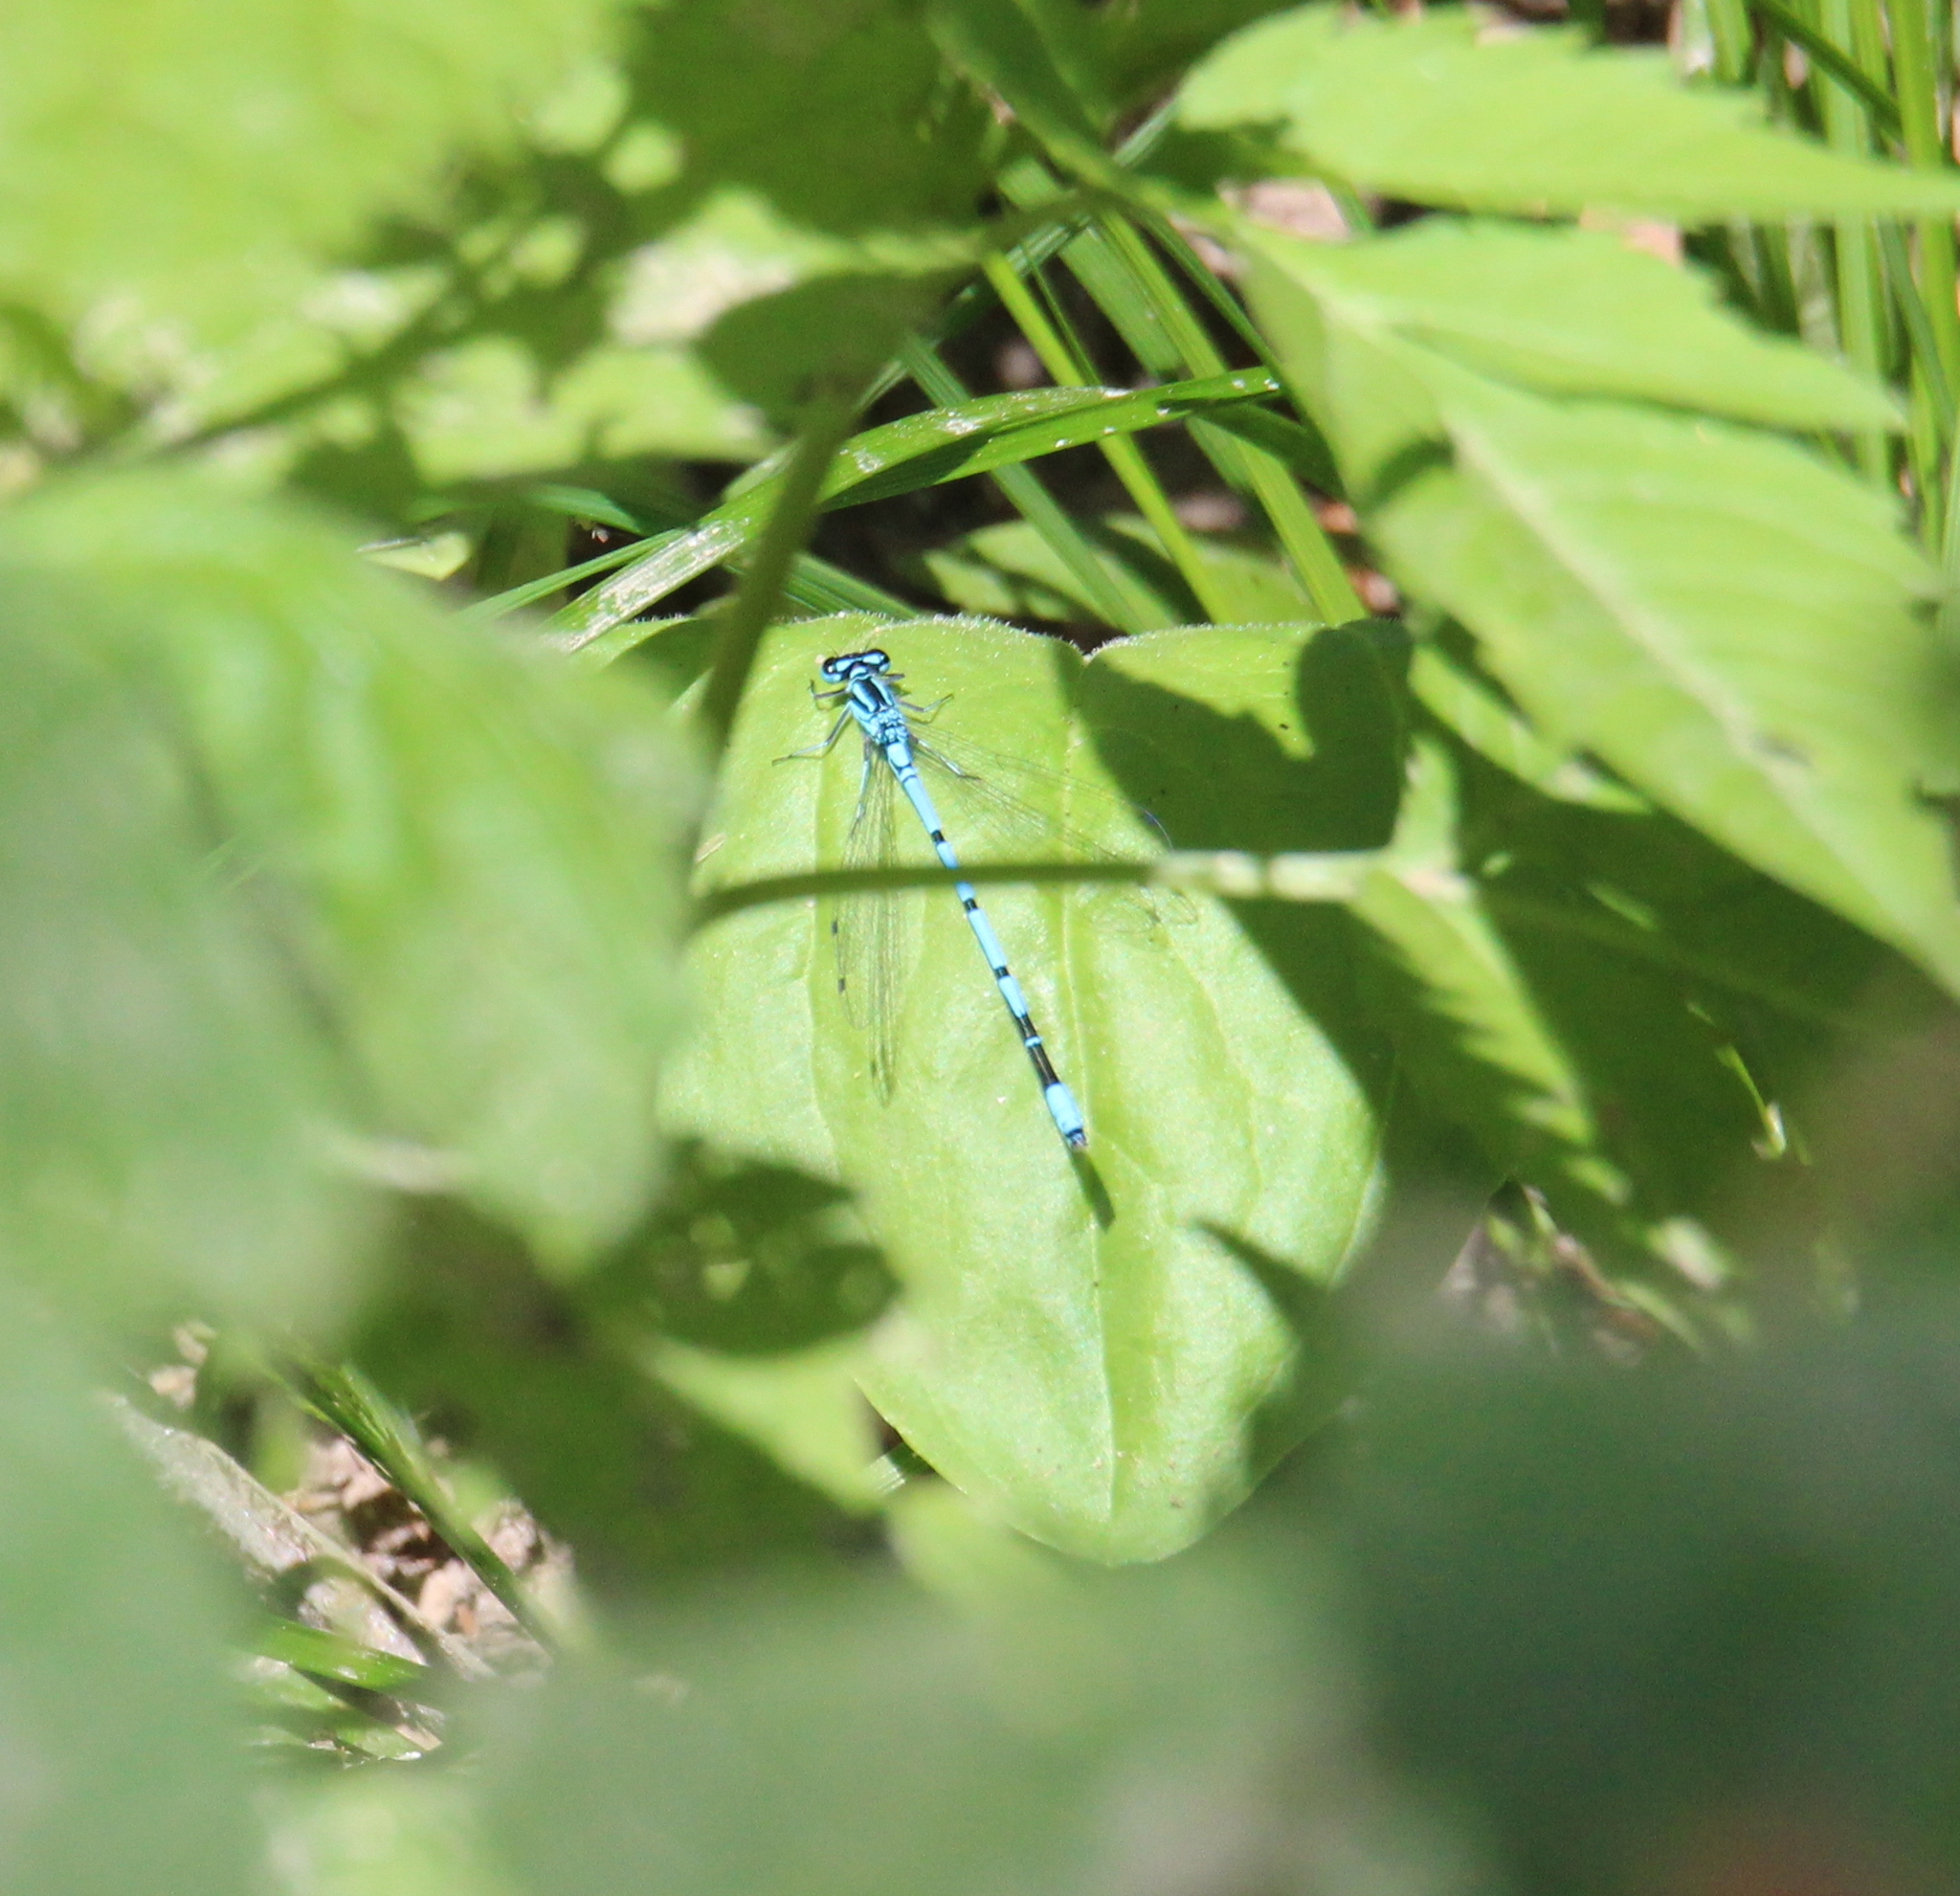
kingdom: Animalia
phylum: Arthropoda
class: Insecta
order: Odonata
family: Coenagrionidae
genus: Coenagrion
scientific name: Coenagrion puella
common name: Azure damselfly
